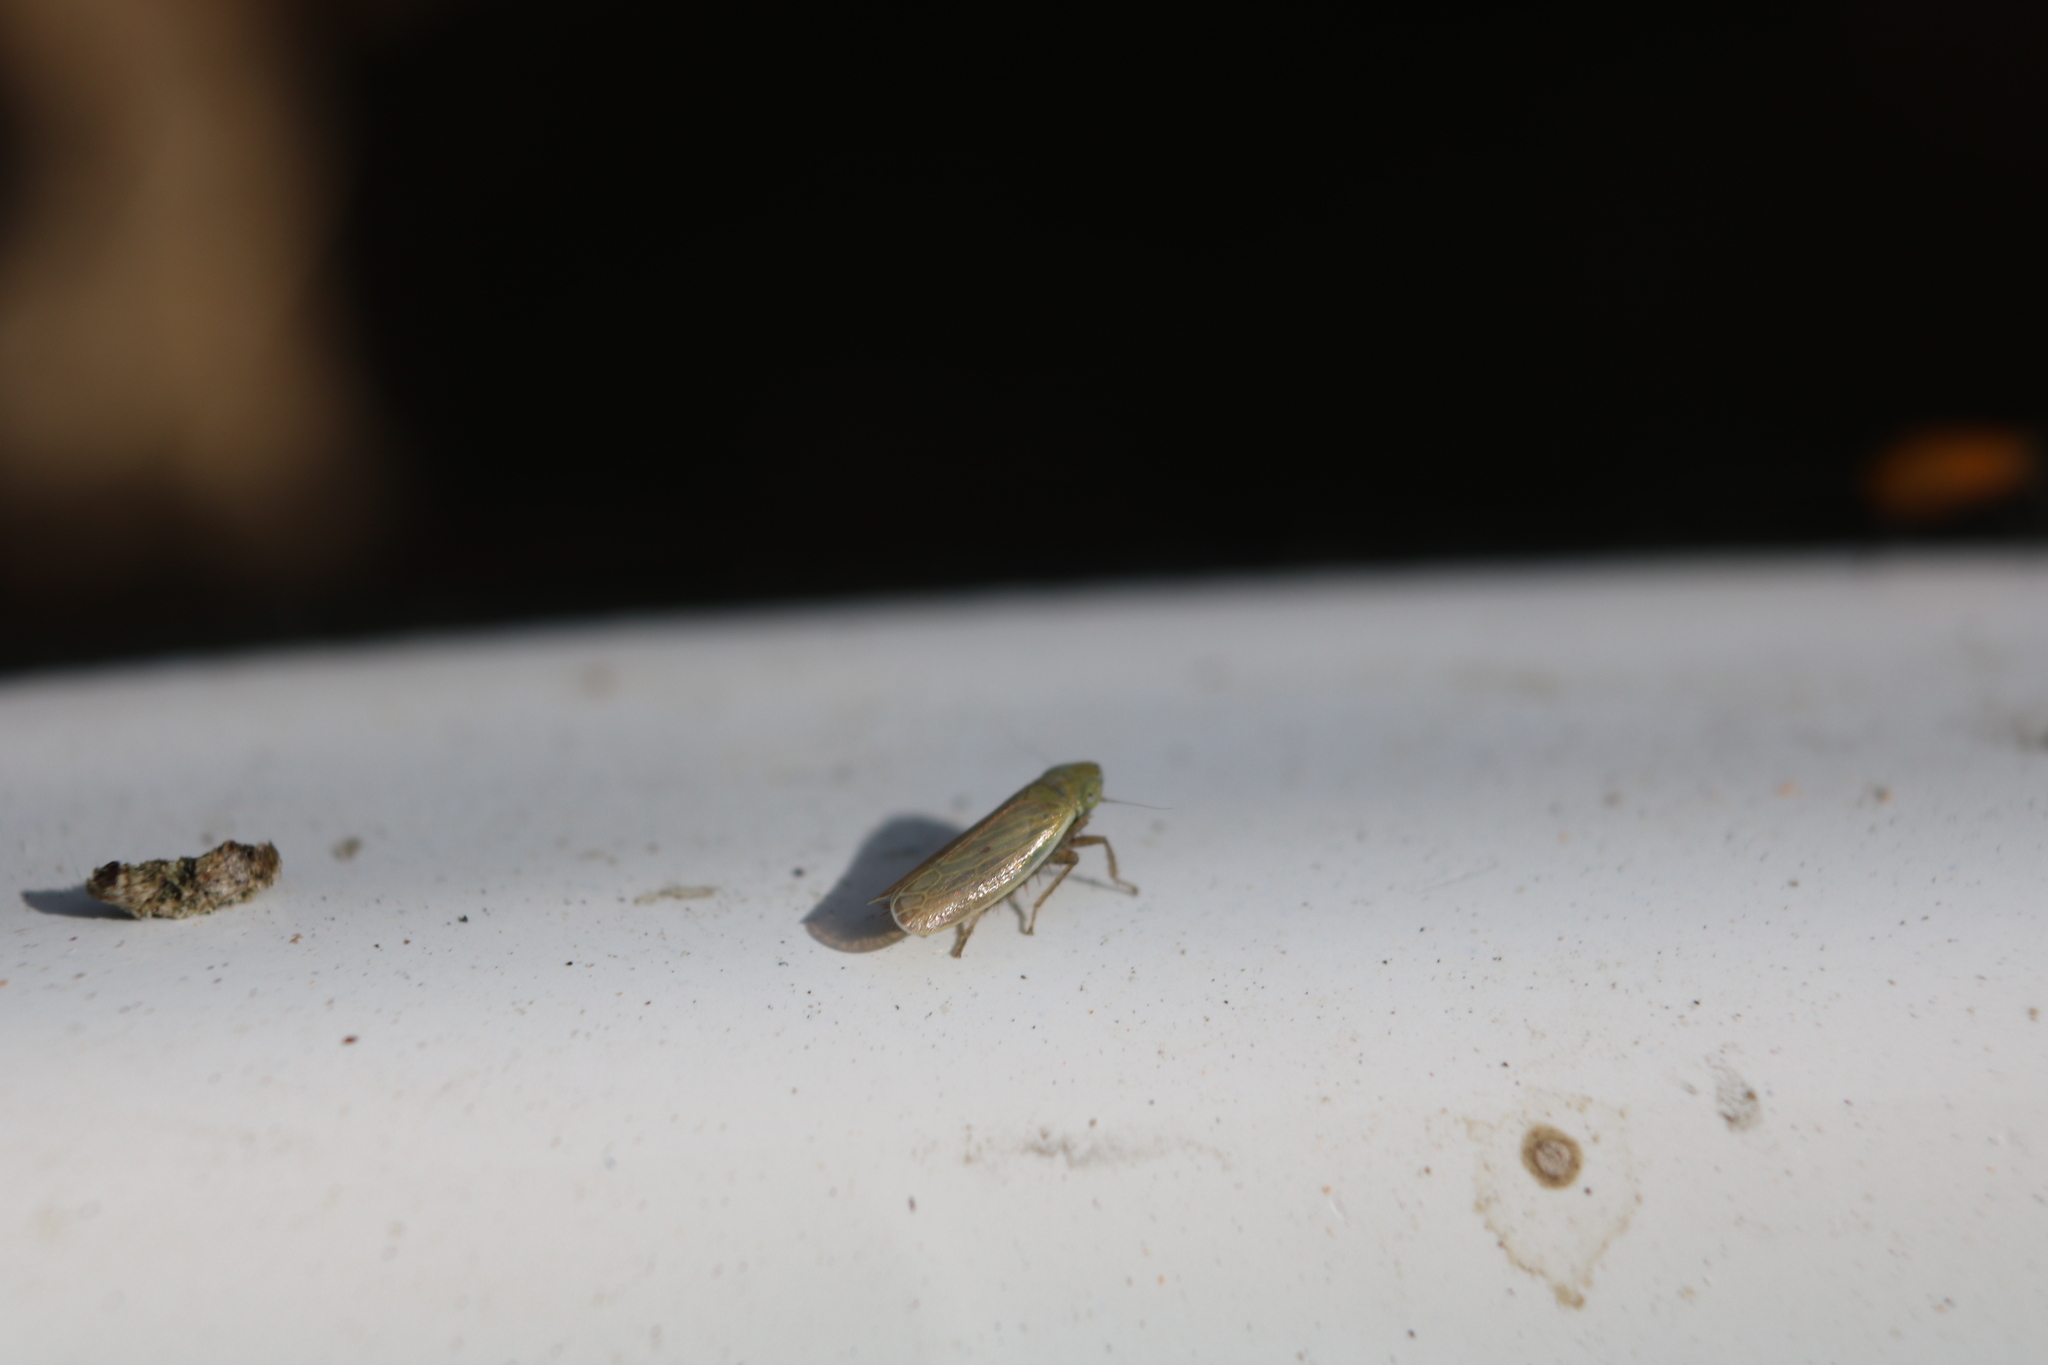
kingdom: Animalia
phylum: Arthropoda
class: Insecta
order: Hemiptera
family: Cicadellidae
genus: Arthaldeus
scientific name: Arthaldeus pascuellus
